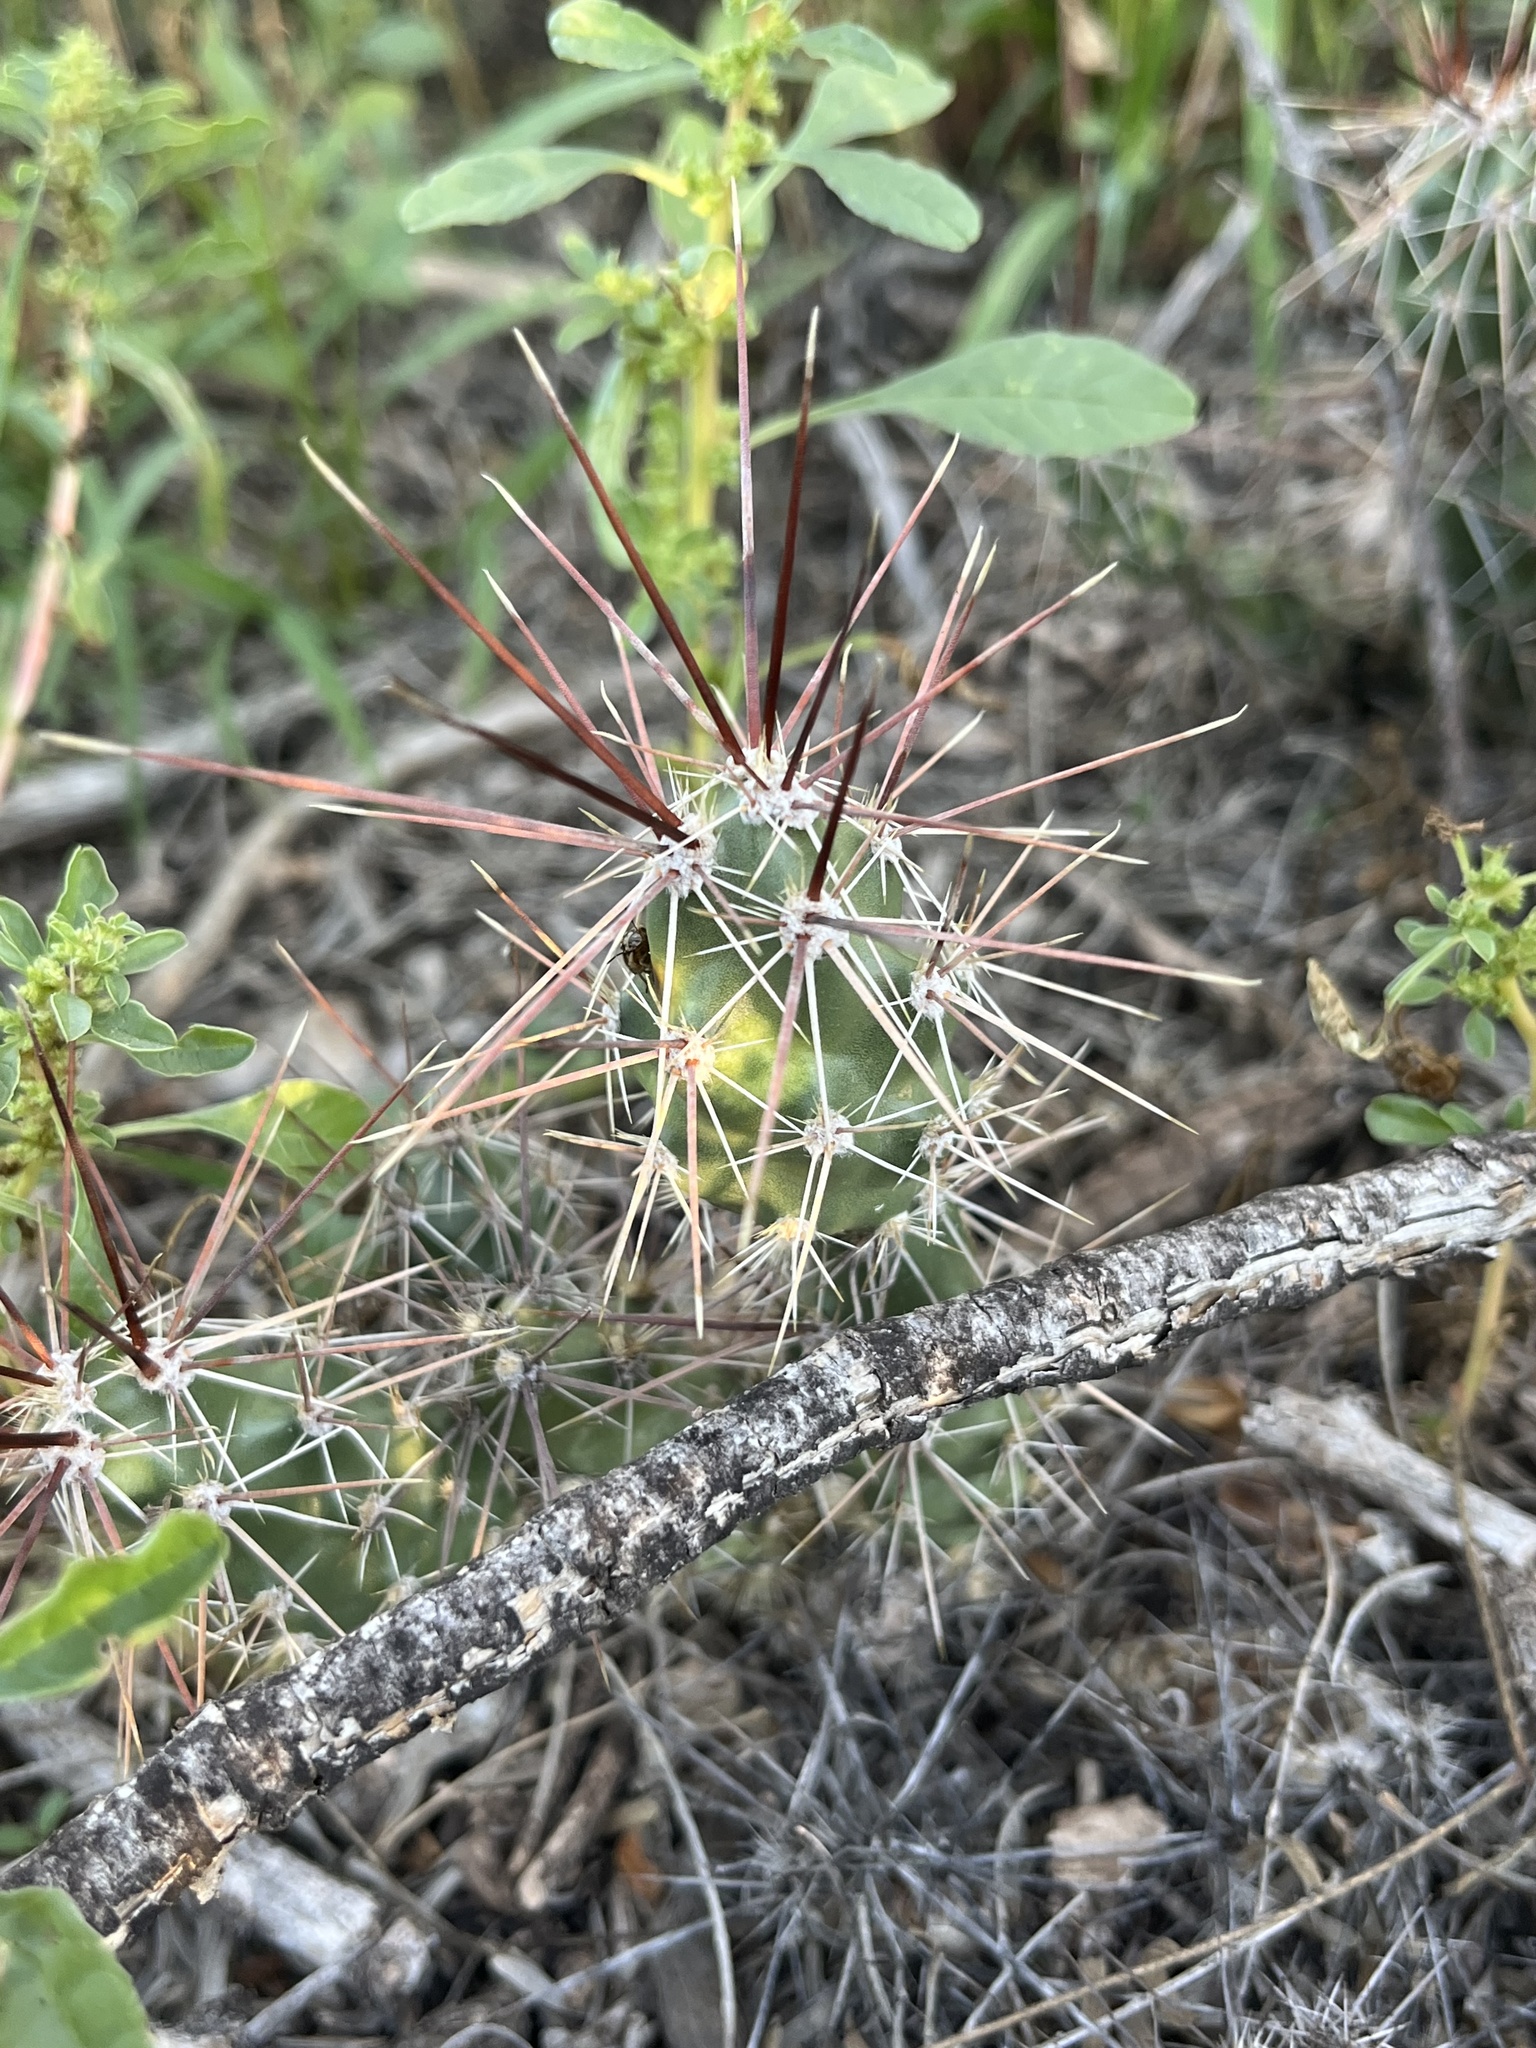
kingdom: Plantae
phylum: Tracheophyta
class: Magnoliopsida
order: Caryophyllales
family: Cactaceae
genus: Grusonia
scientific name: Grusonia schottii
